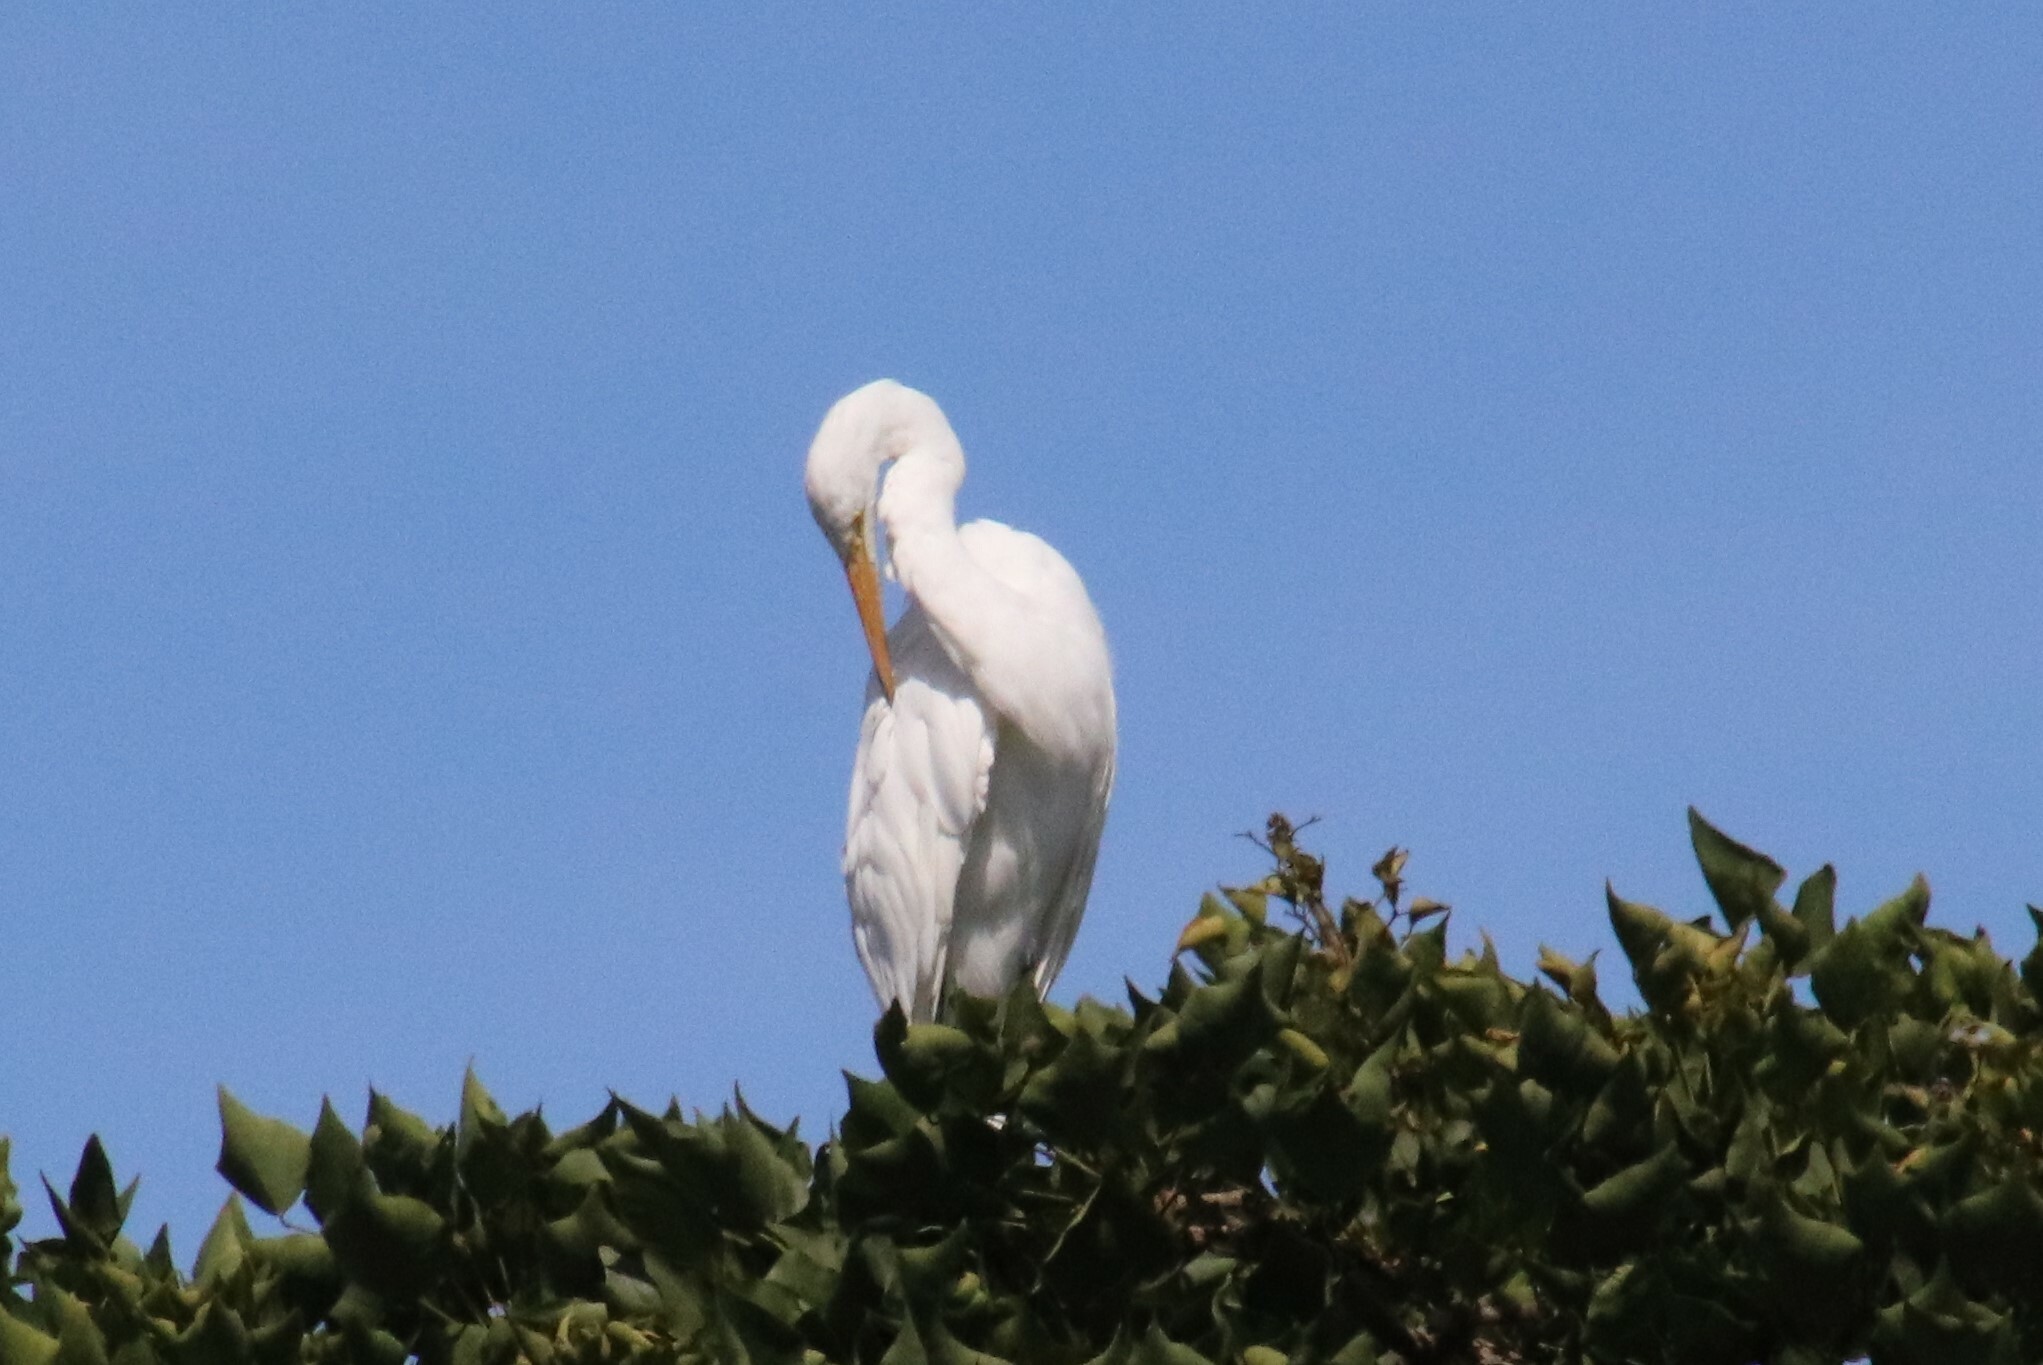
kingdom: Animalia
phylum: Chordata
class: Aves
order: Pelecaniformes
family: Ardeidae
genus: Ardea
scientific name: Ardea alba
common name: Great egret
